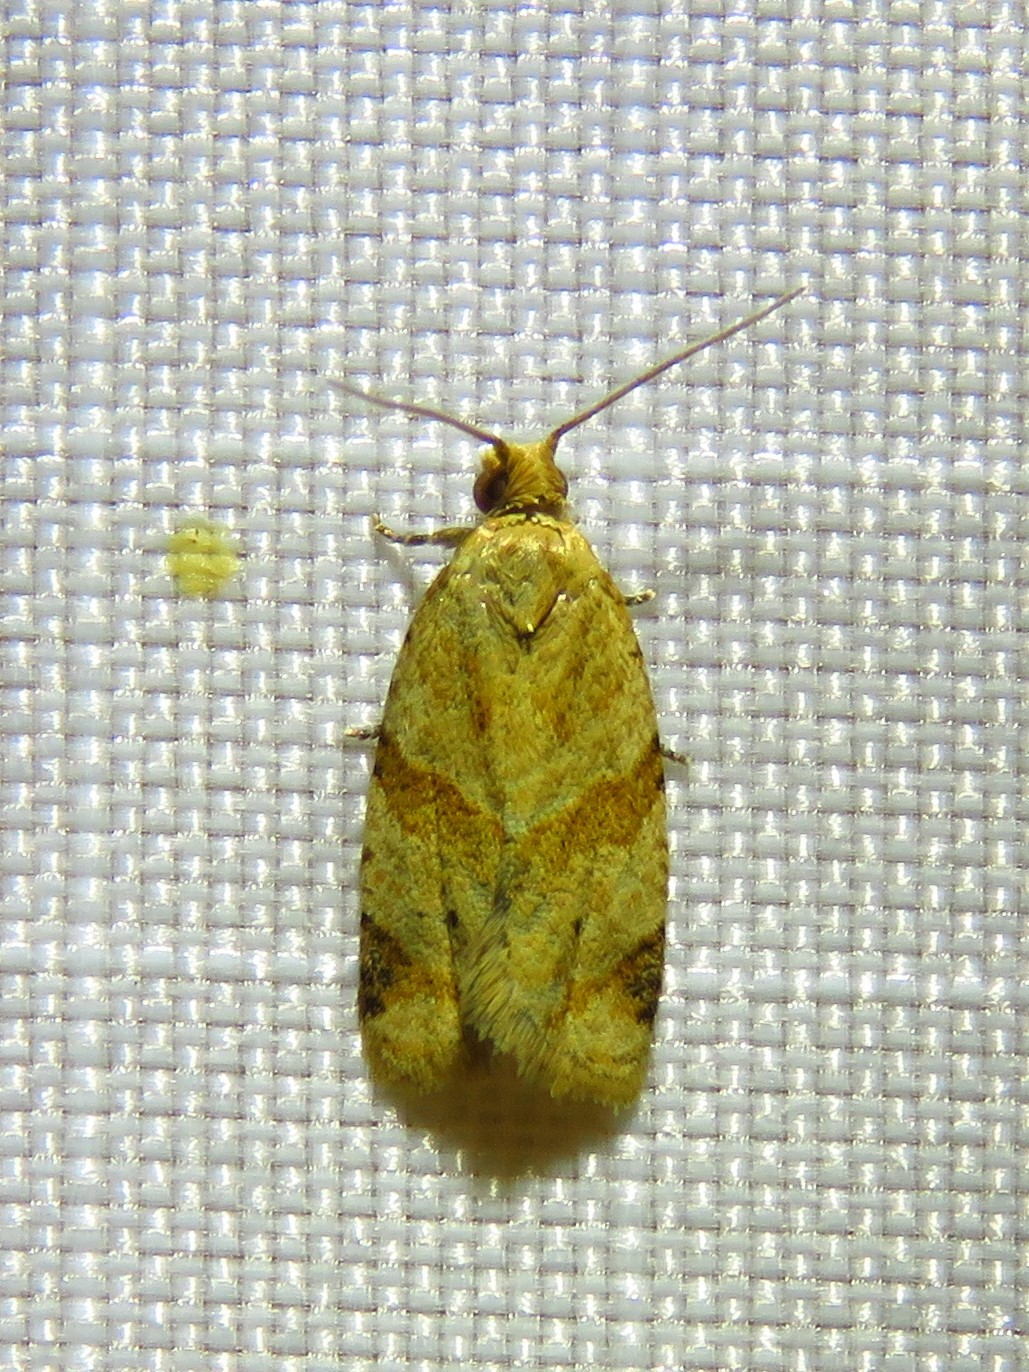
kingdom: Animalia
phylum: Arthropoda
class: Insecta
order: Lepidoptera
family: Tortricidae
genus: Clepsis
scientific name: Clepsis peritana
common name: Garden tortrix
